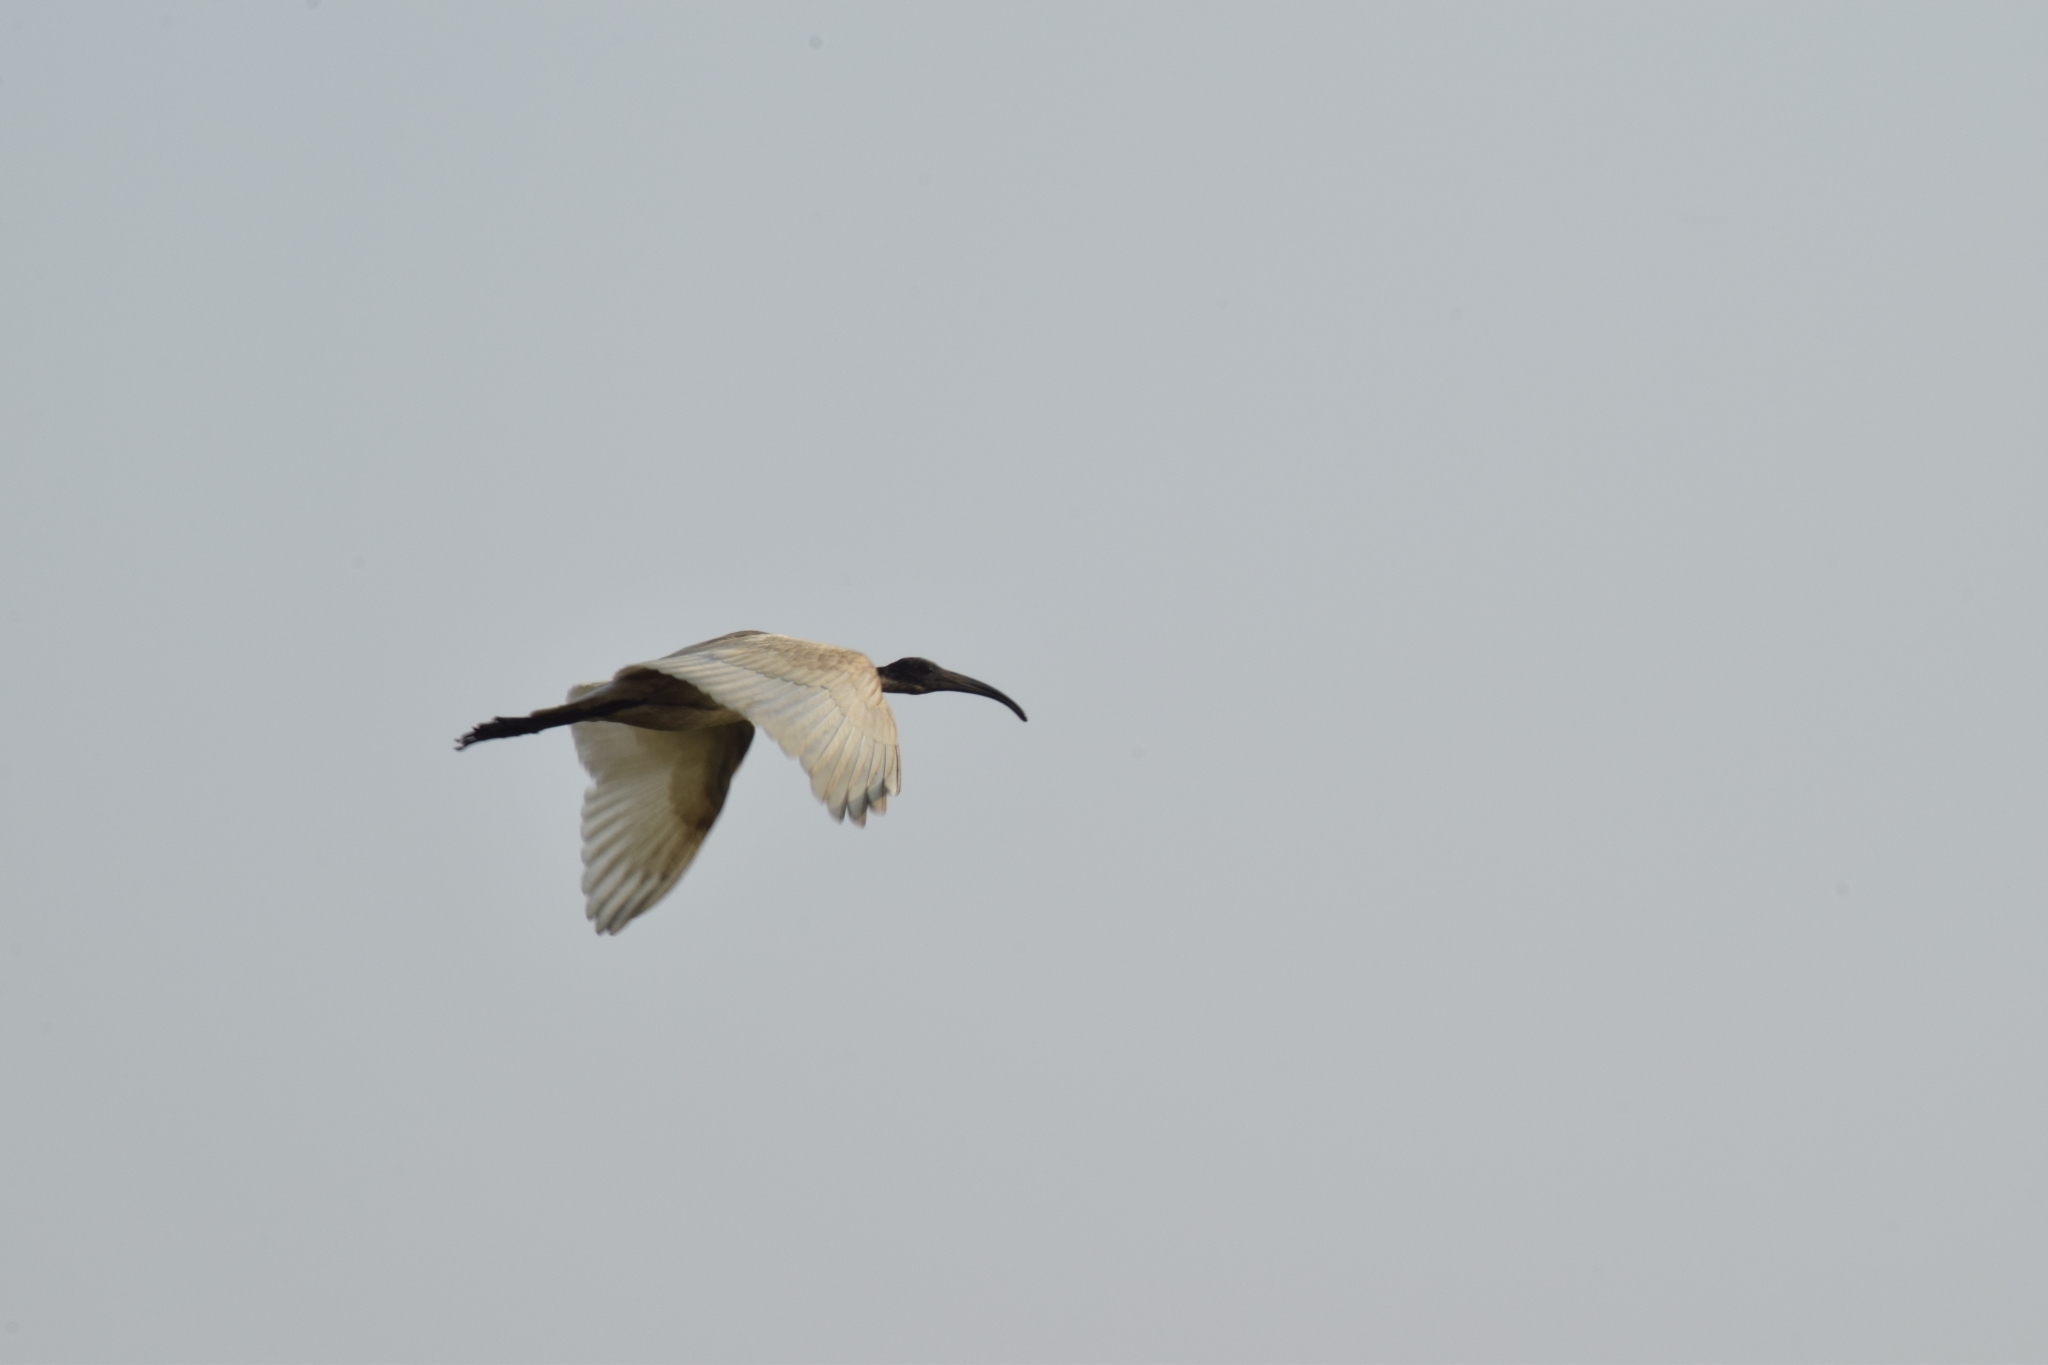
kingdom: Animalia
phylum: Chordata
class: Aves
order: Pelecaniformes
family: Threskiornithidae
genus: Threskiornis
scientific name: Threskiornis melanocephalus
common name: Black-headed ibis
